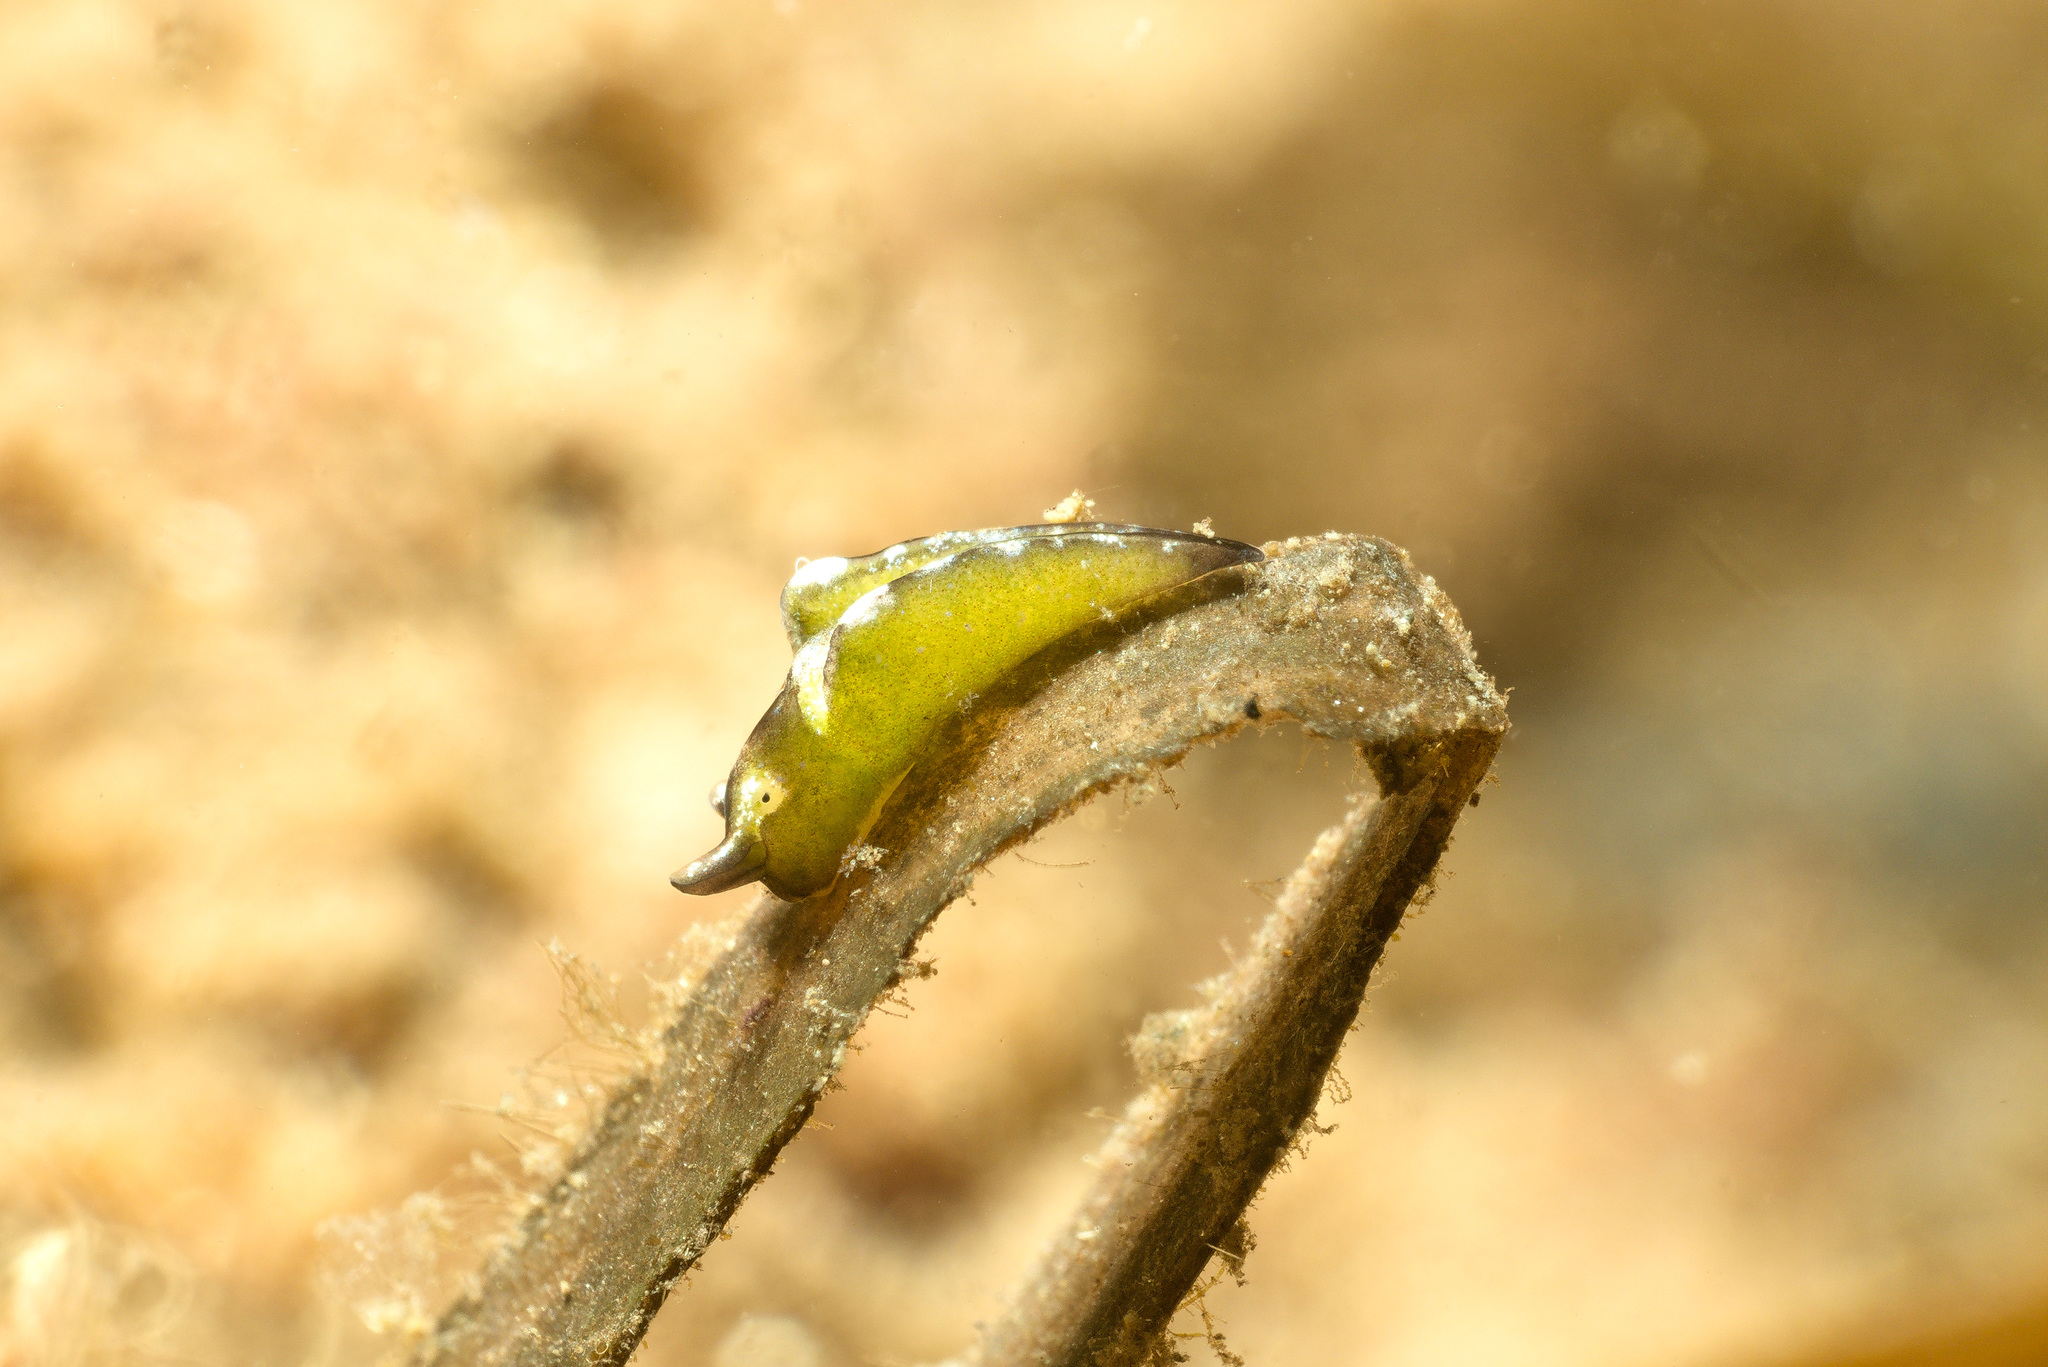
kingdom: Animalia
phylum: Mollusca
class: Gastropoda
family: Plakobranchidae
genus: Elysia
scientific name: Elysia viridis
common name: Green elysia
